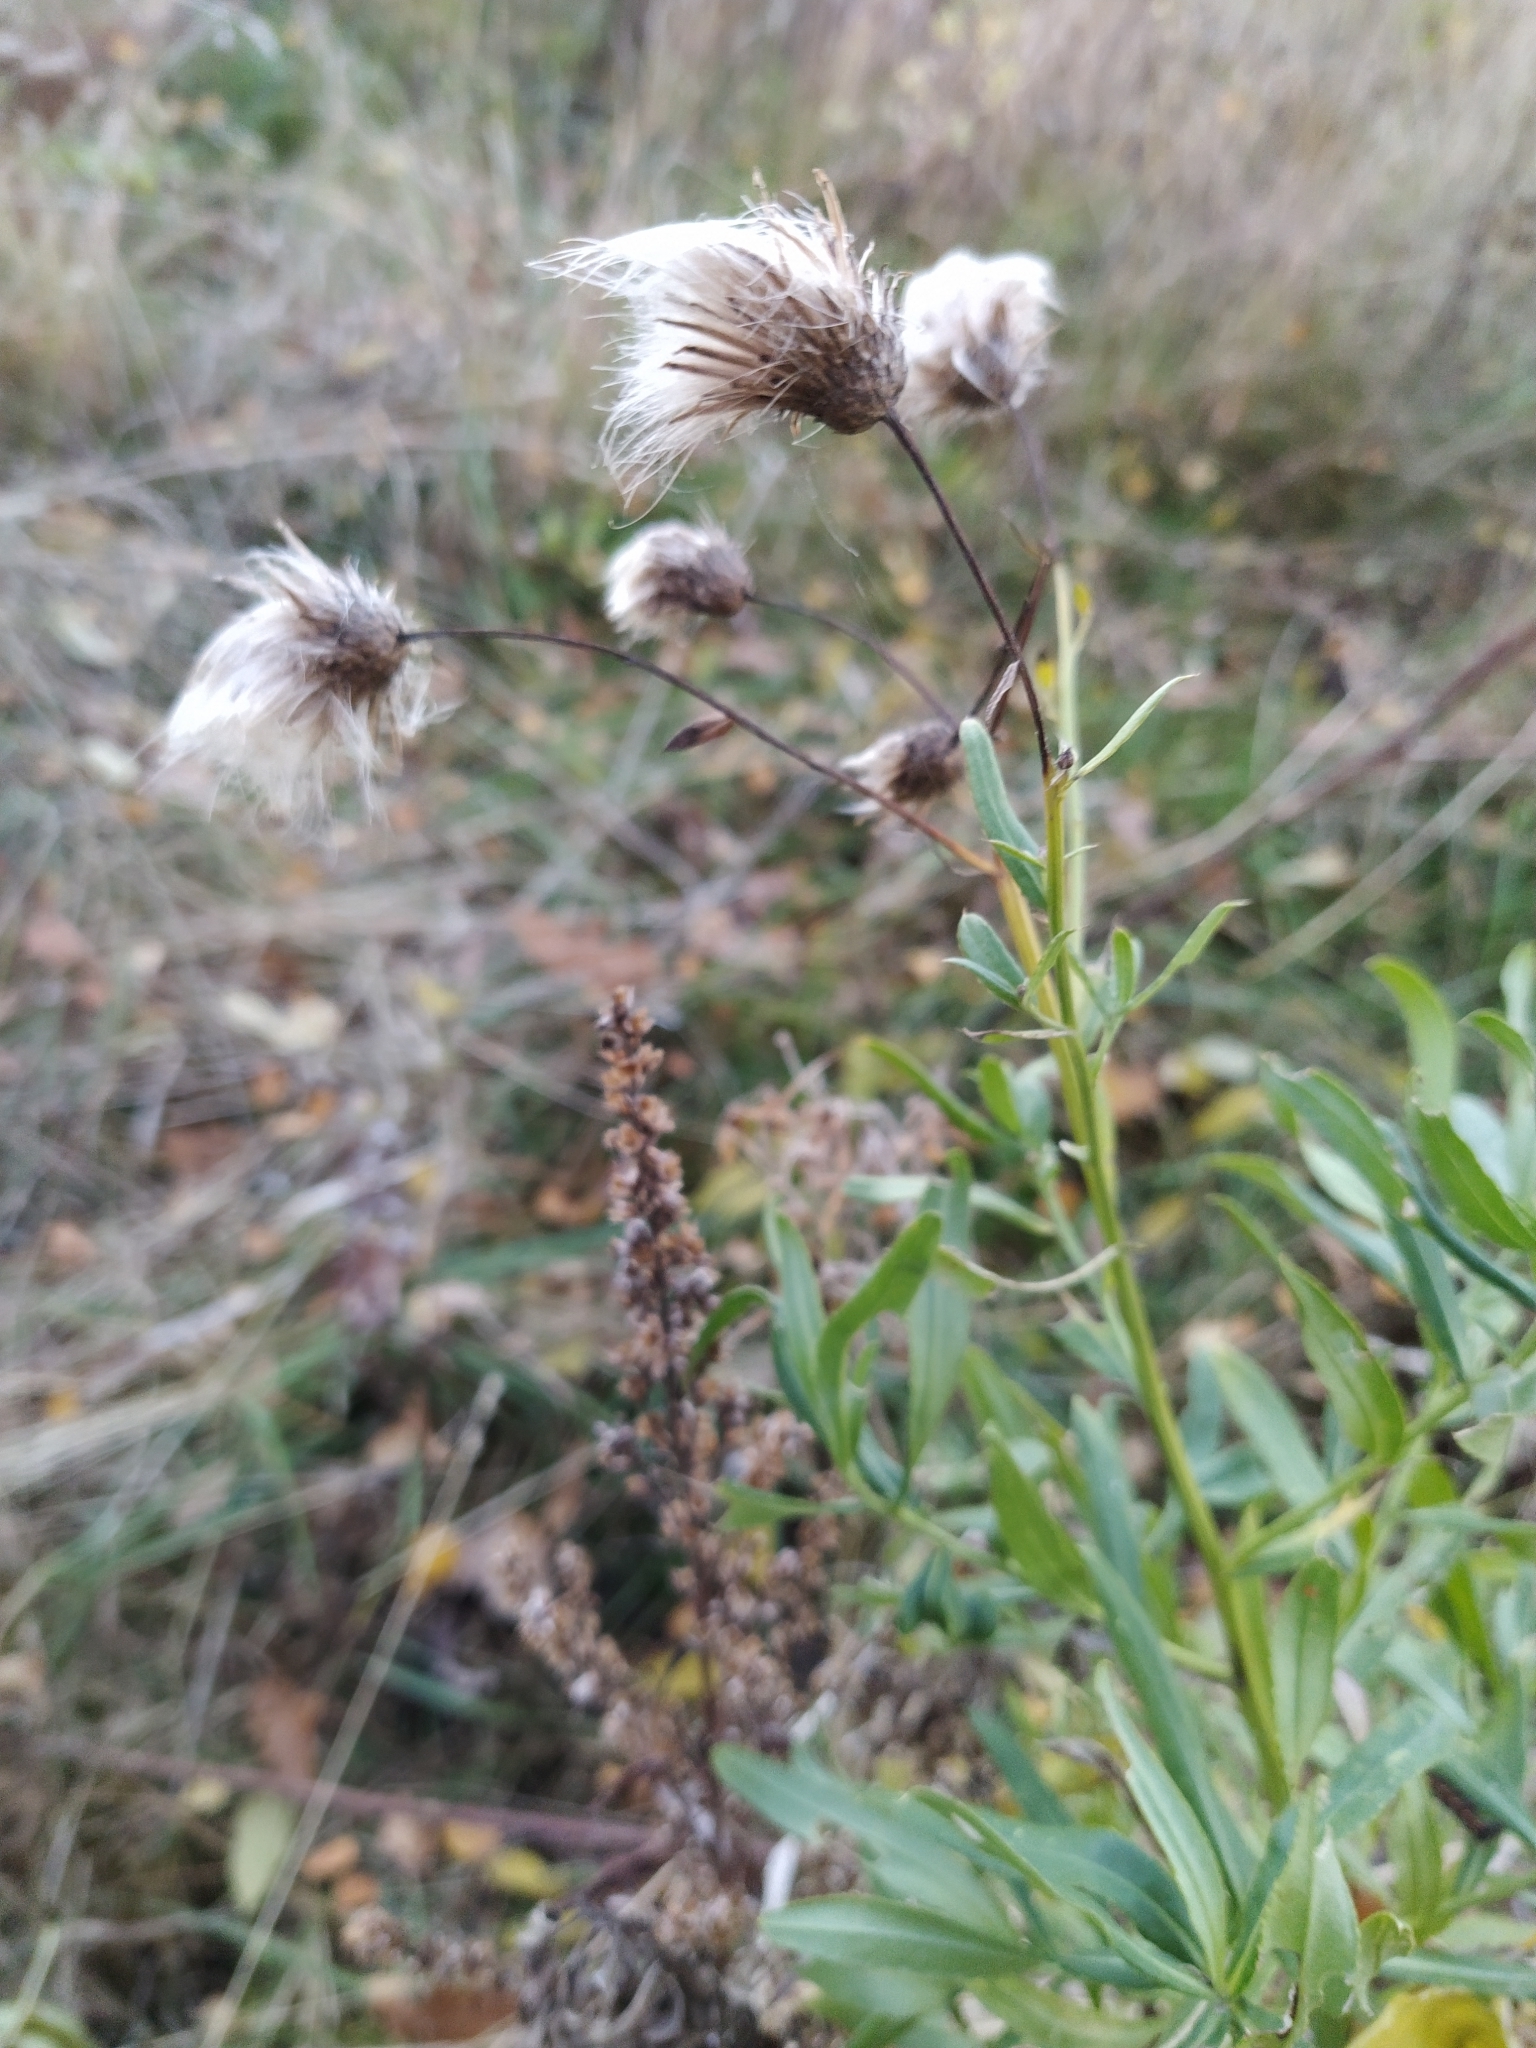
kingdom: Plantae
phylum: Tracheophyta
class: Magnoliopsida
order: Asterales
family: Asteraceae
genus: Cirsium
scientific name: Cirsium arvense
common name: Creeping thistle
